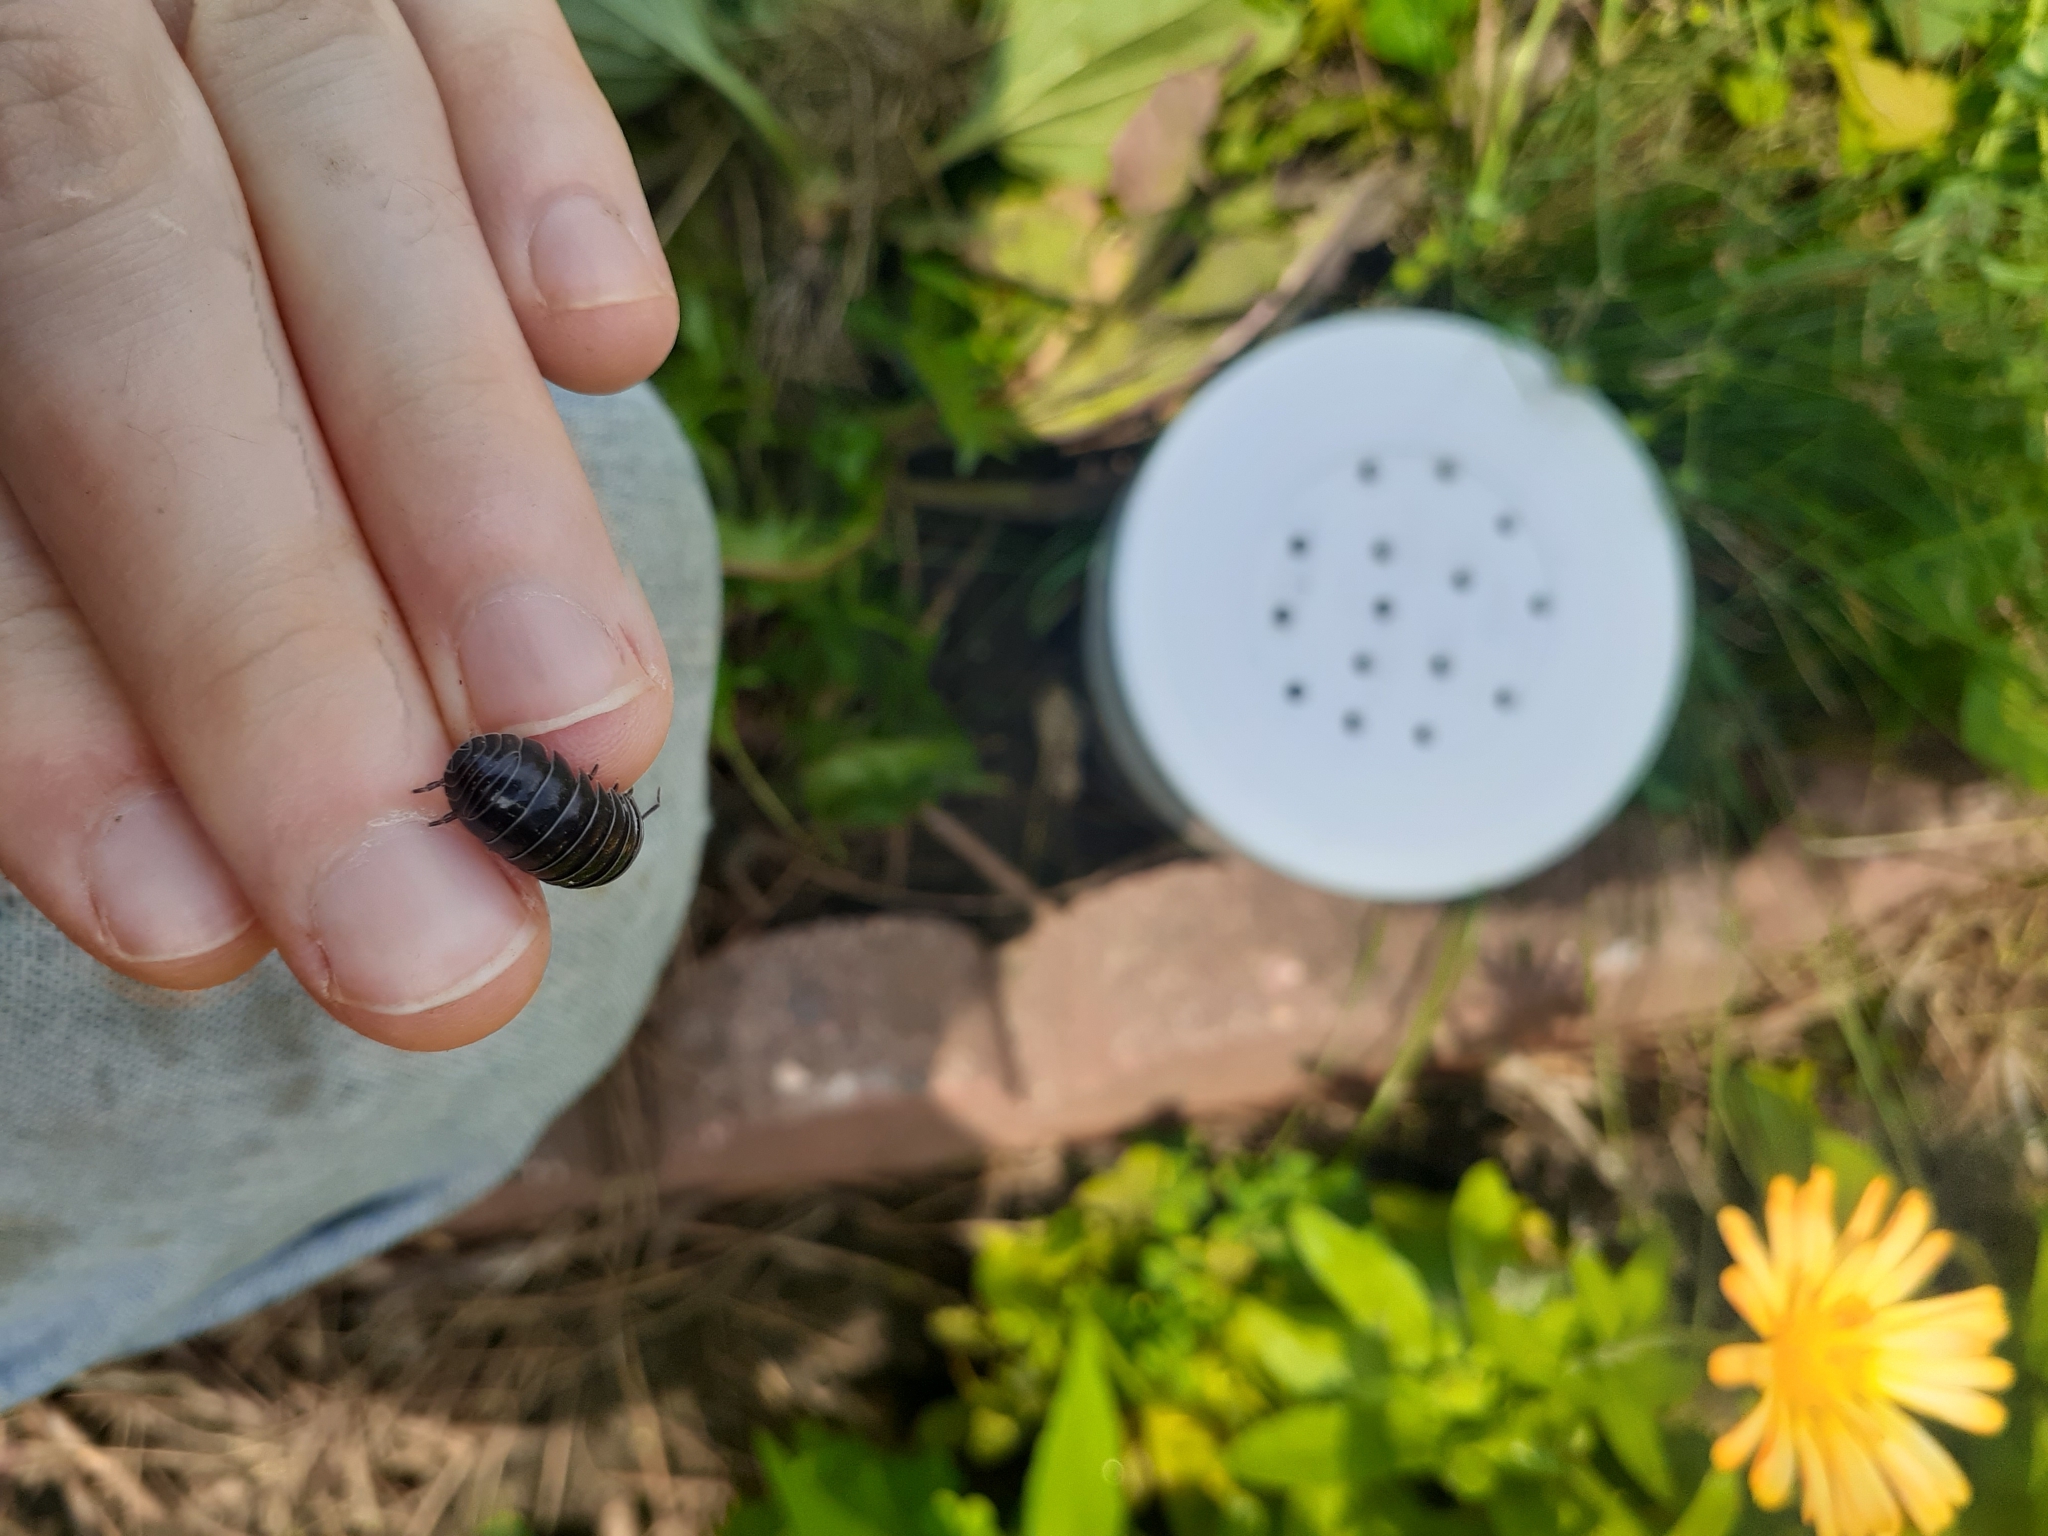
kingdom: Animalia
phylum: Arthropoda
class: Malacostraca
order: Isopoda
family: Armadillidiidae
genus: Armadillidium
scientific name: Armadillidium vulgare
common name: Common pill woodlouse
